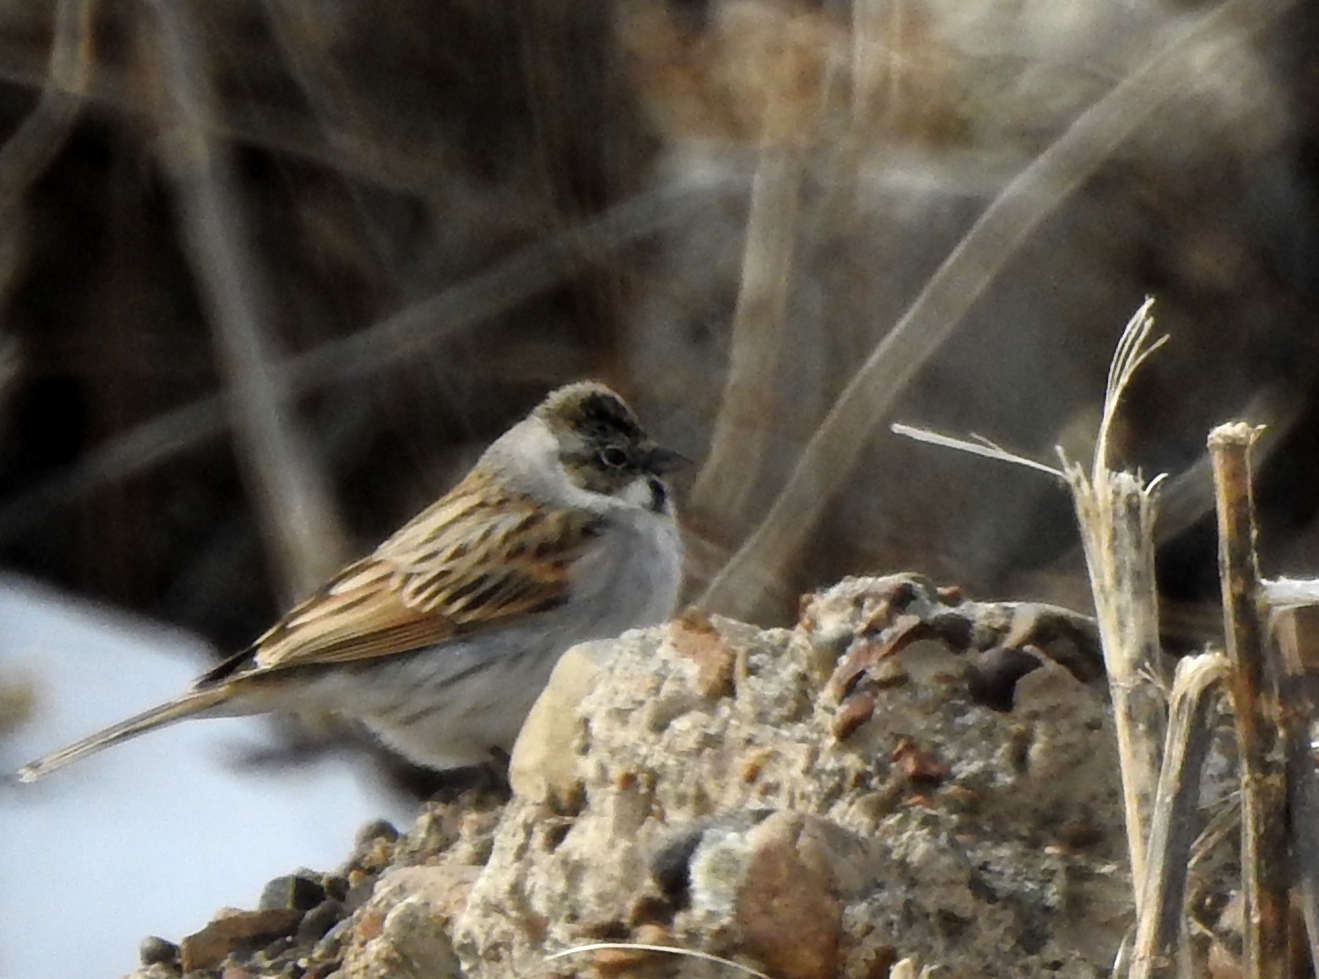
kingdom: Animalia
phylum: Chordata
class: Aves
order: Passeriformes
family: Emberizidae
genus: Emberiza
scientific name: Emberiza schoeniclus
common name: Reed bunting
